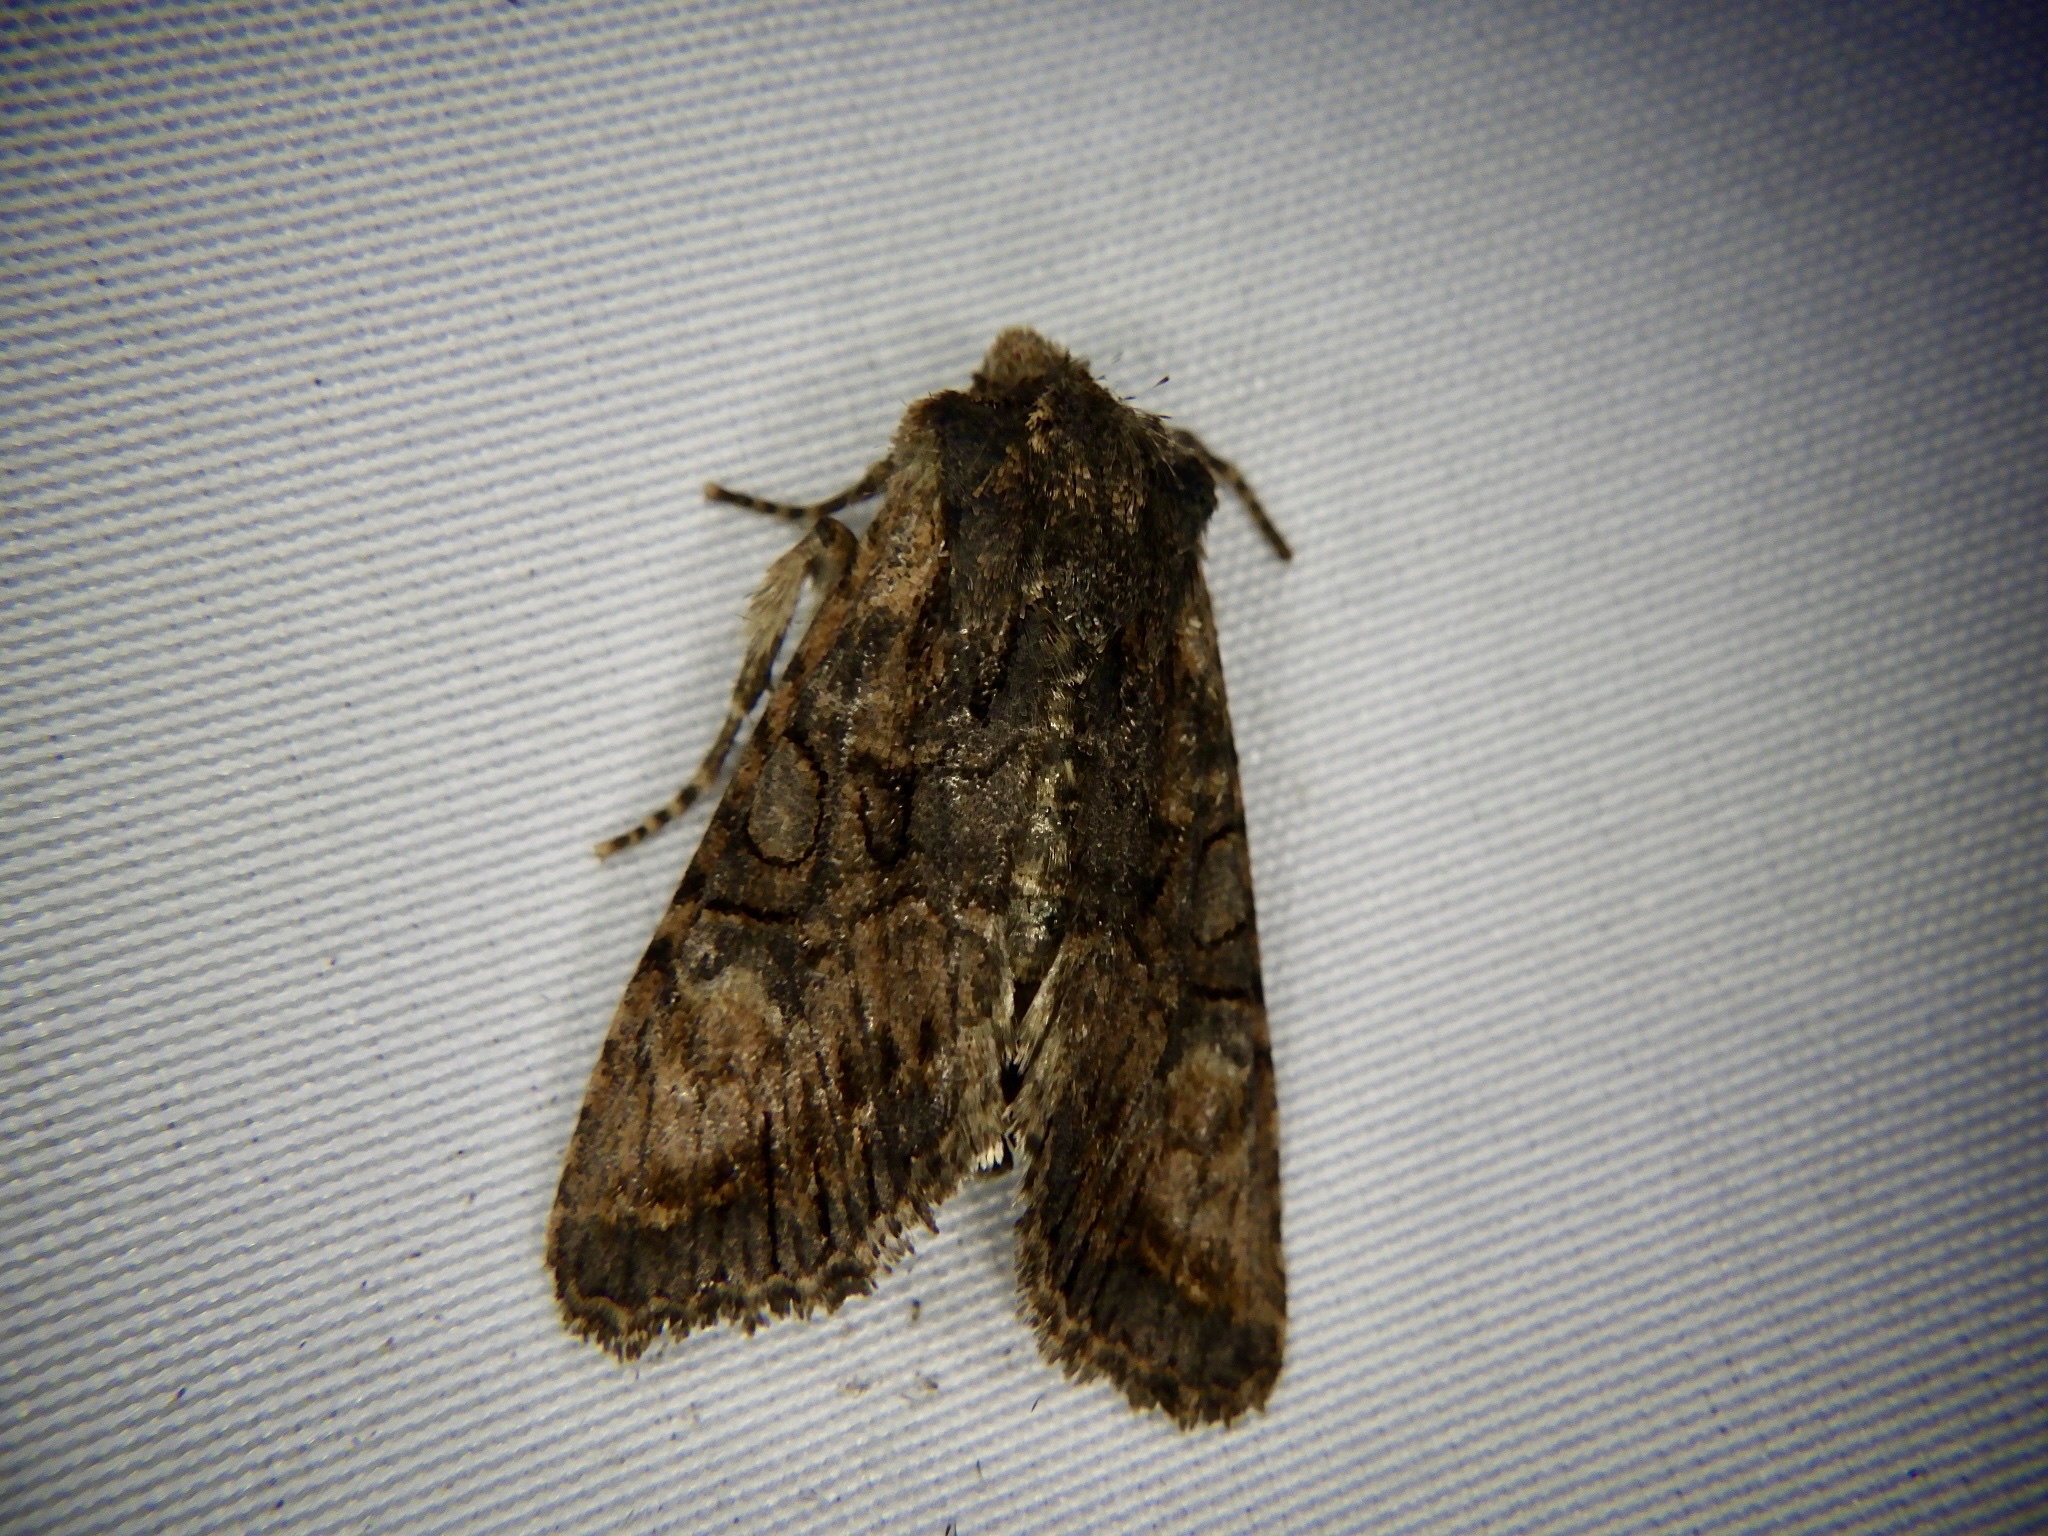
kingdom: Animalia
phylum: Arthropoda
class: Insecta
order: Lepidoptera
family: Noctuidae
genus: Nyctycia
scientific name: Nyctycia strigidisca
